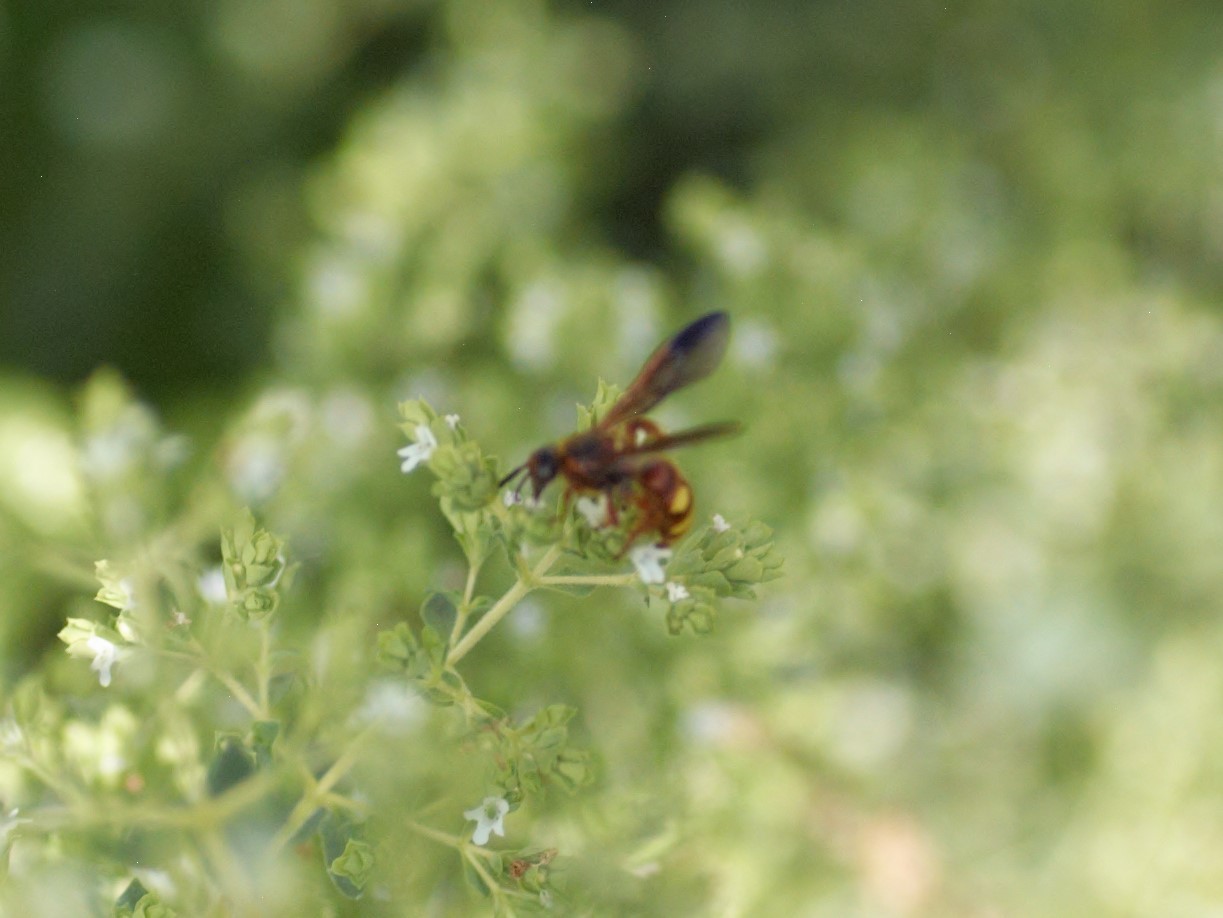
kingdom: Animalia
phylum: Arthropoda
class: Insecta
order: Hymenoptera
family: Scoliidae
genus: Scolia
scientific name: Scolia nobilitata
